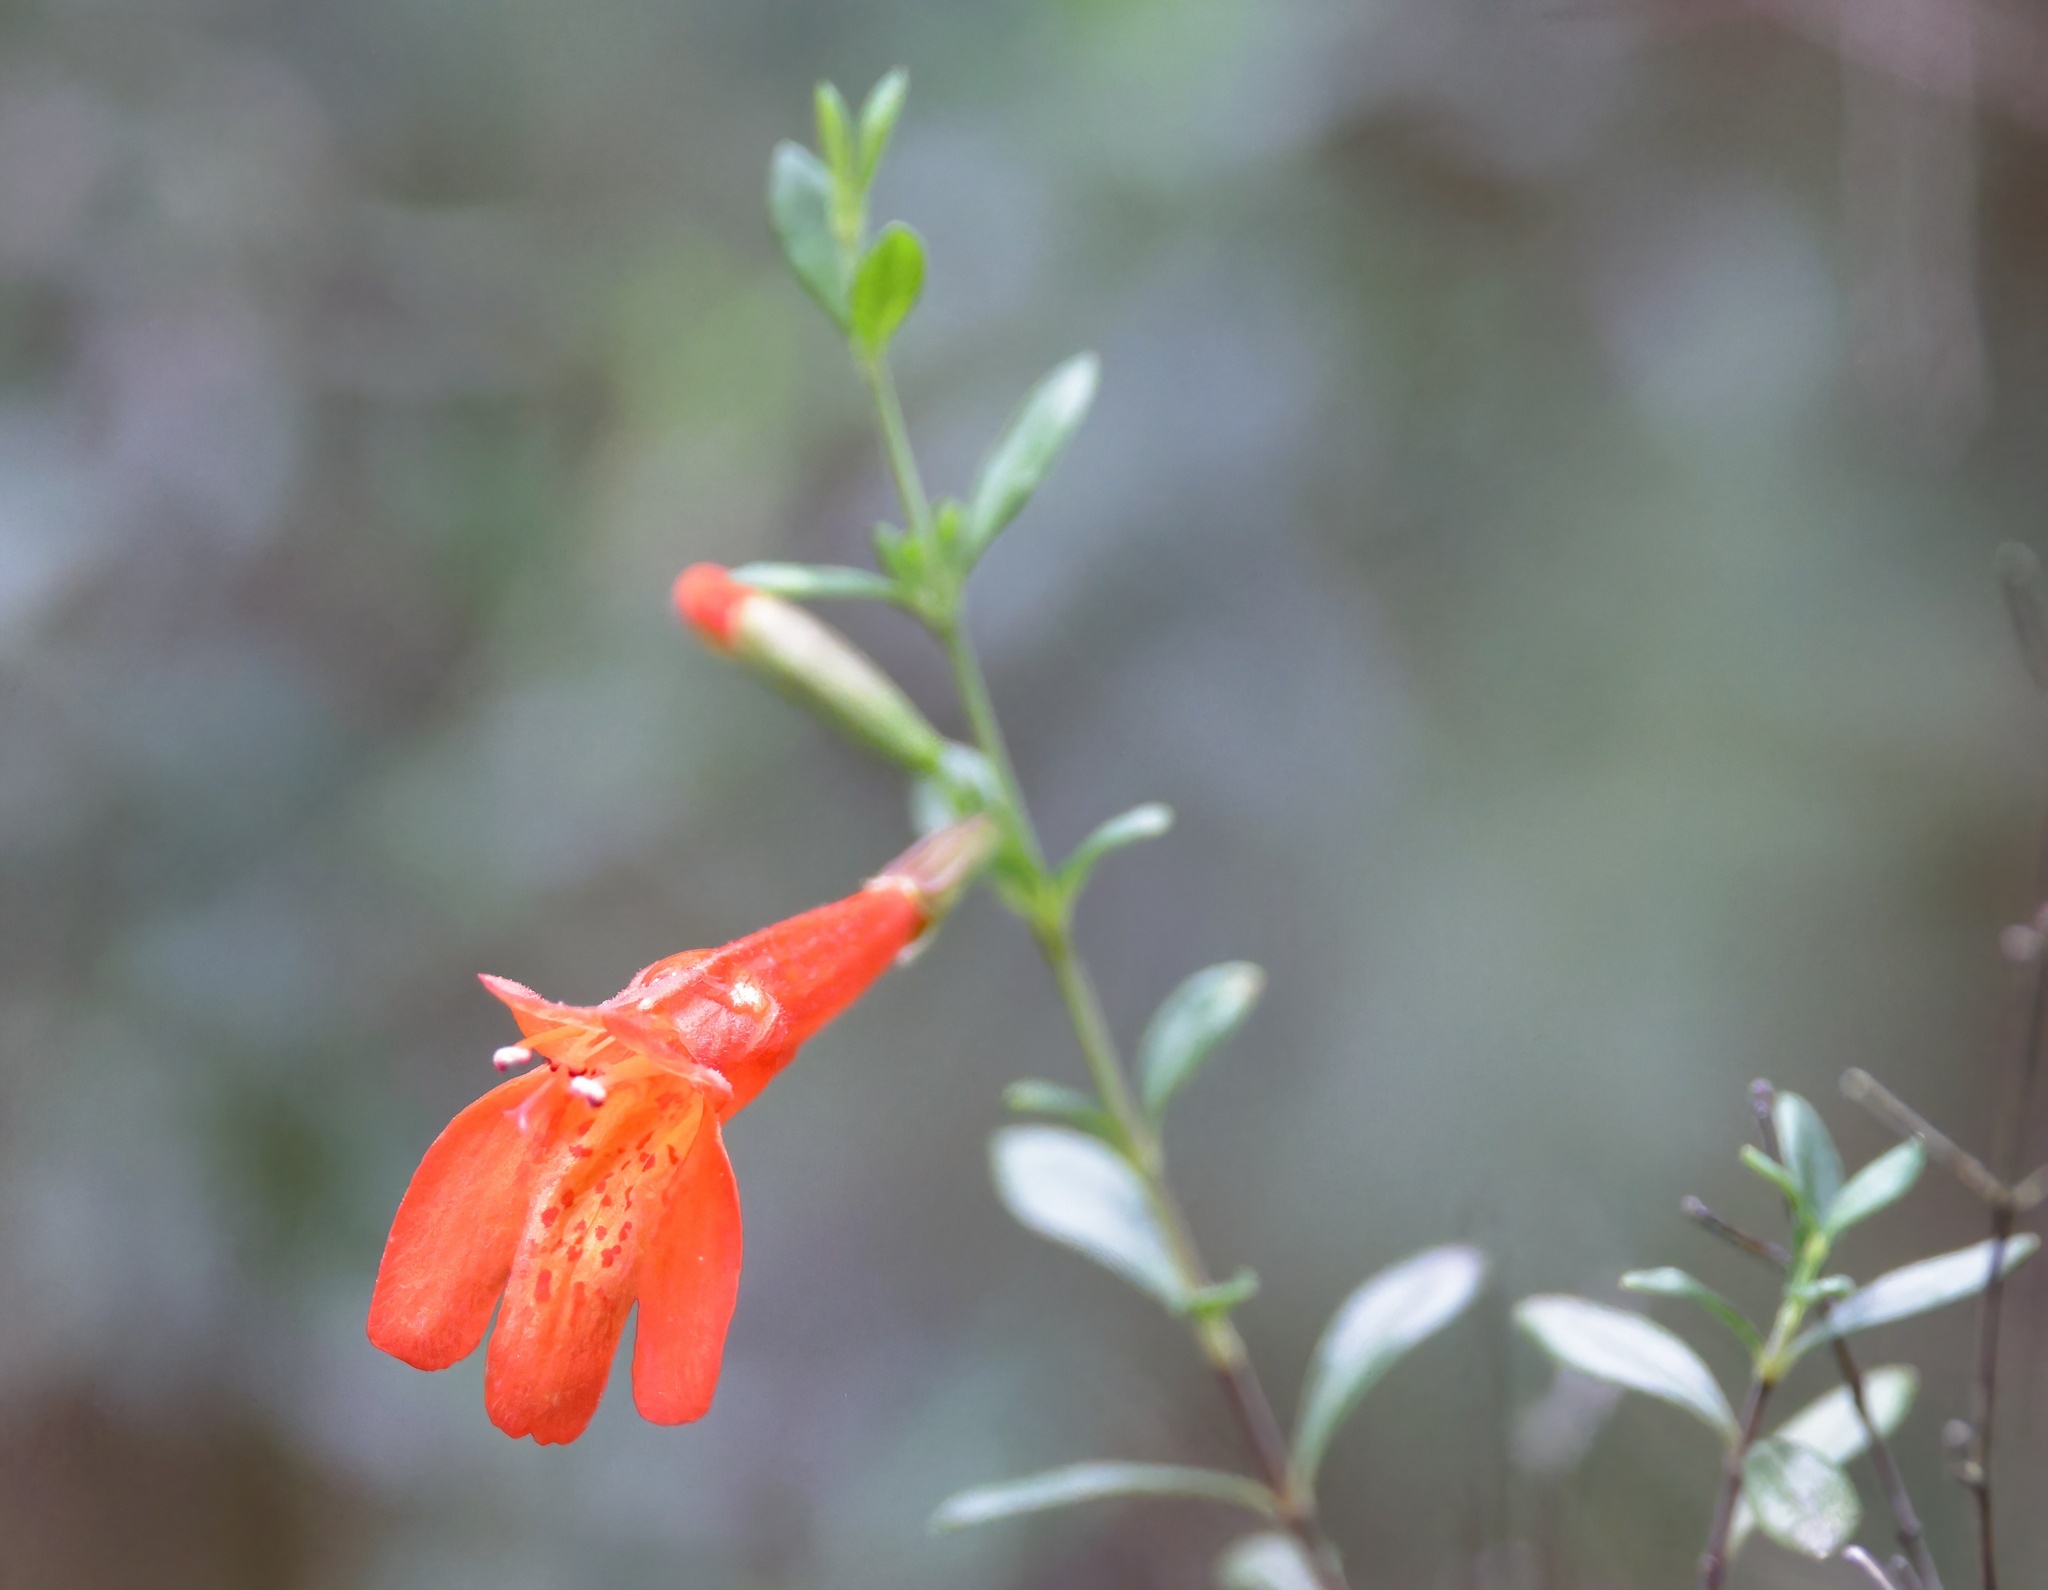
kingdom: Plantae
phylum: Tracheophyta
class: Magnoliopsida
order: Lamiales
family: Lamiaceae
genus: Clinopodium
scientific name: Clinopodium coccineum
